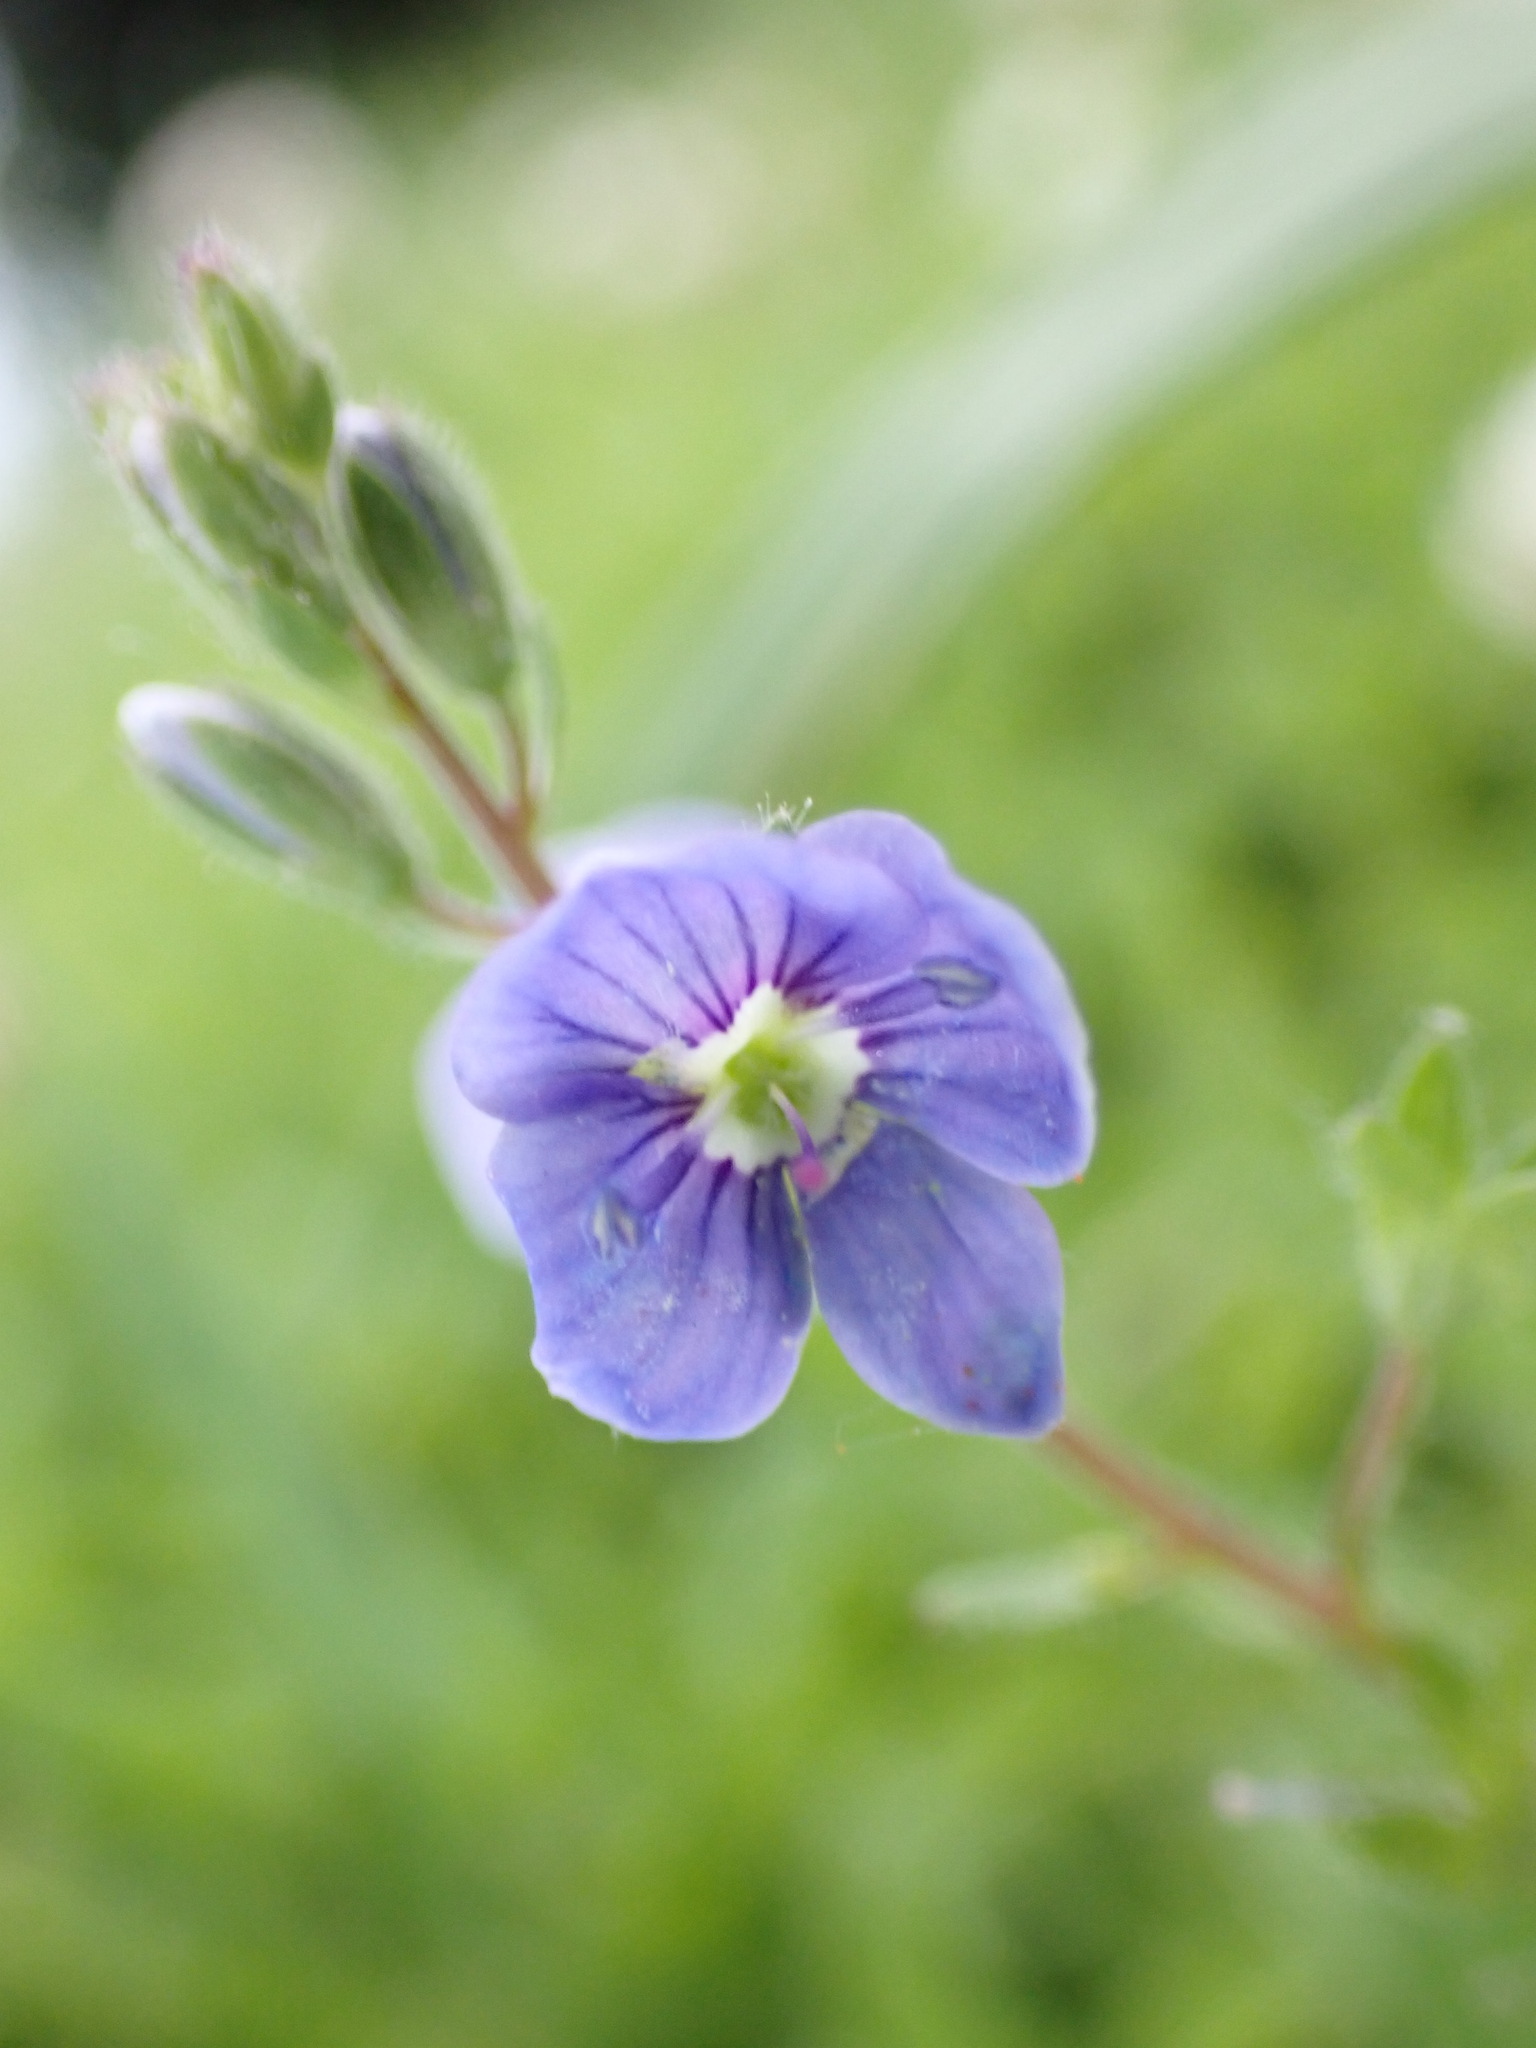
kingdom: Plantae
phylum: Tracheophyta
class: Magnoliopsida
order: Lamiales
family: Plantaginaceae
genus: Veronica
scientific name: Veronica chamaedrys
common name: Germander speedwell
